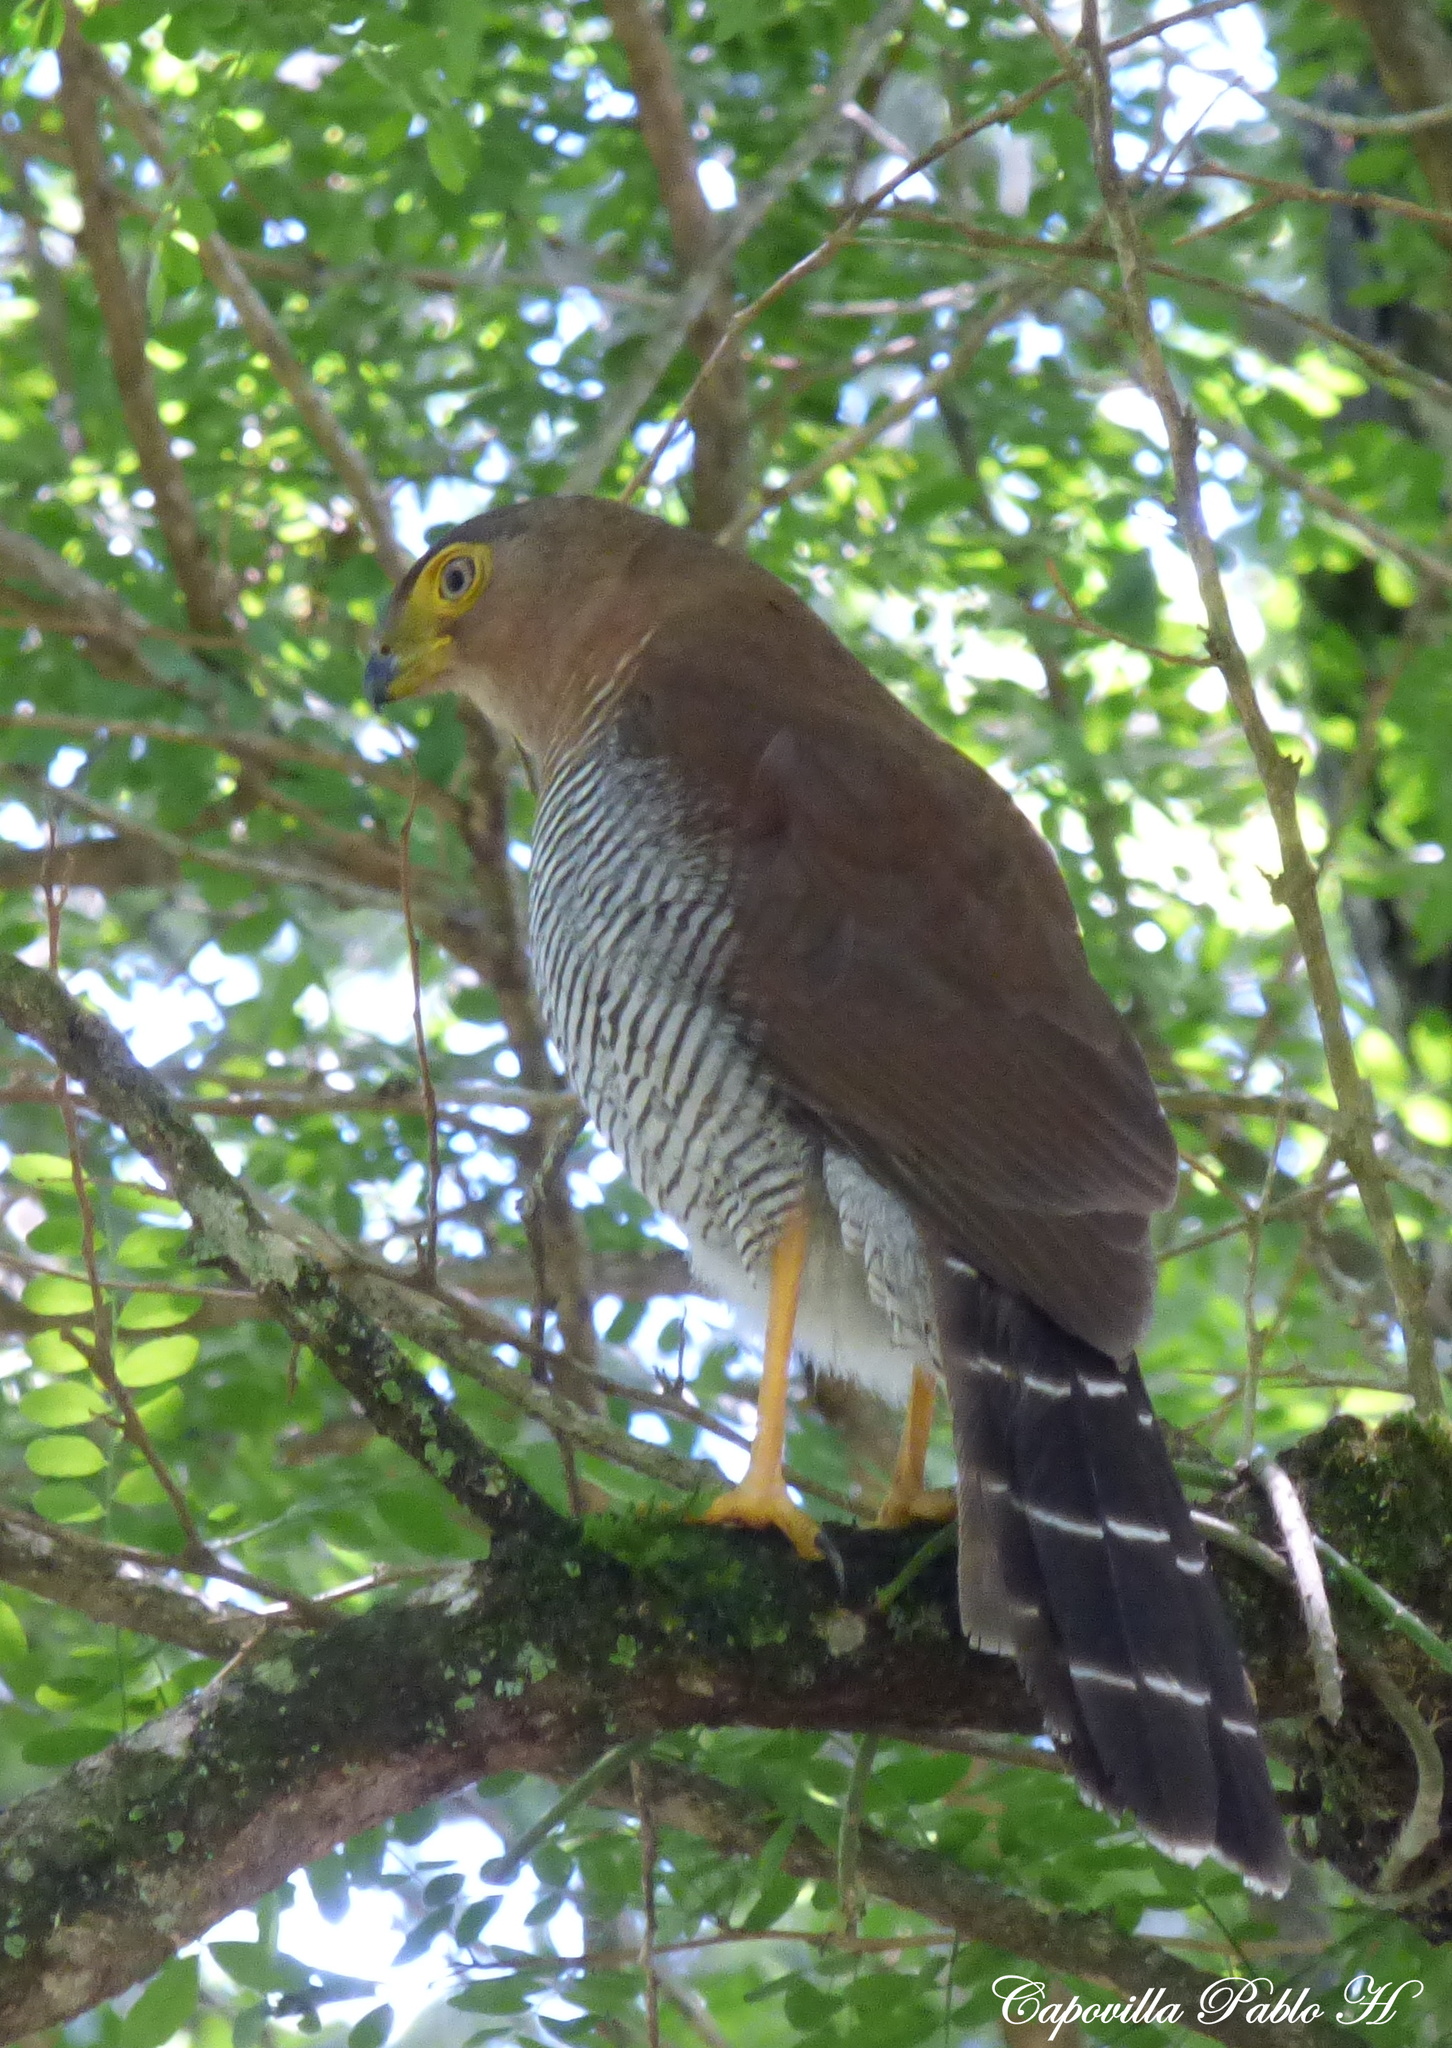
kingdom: Animalia
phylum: Chordata
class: Aves
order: Falconiformes
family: Falconidae
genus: Micrastur
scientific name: Micrastur ruficollis
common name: Barred forest-falcon
